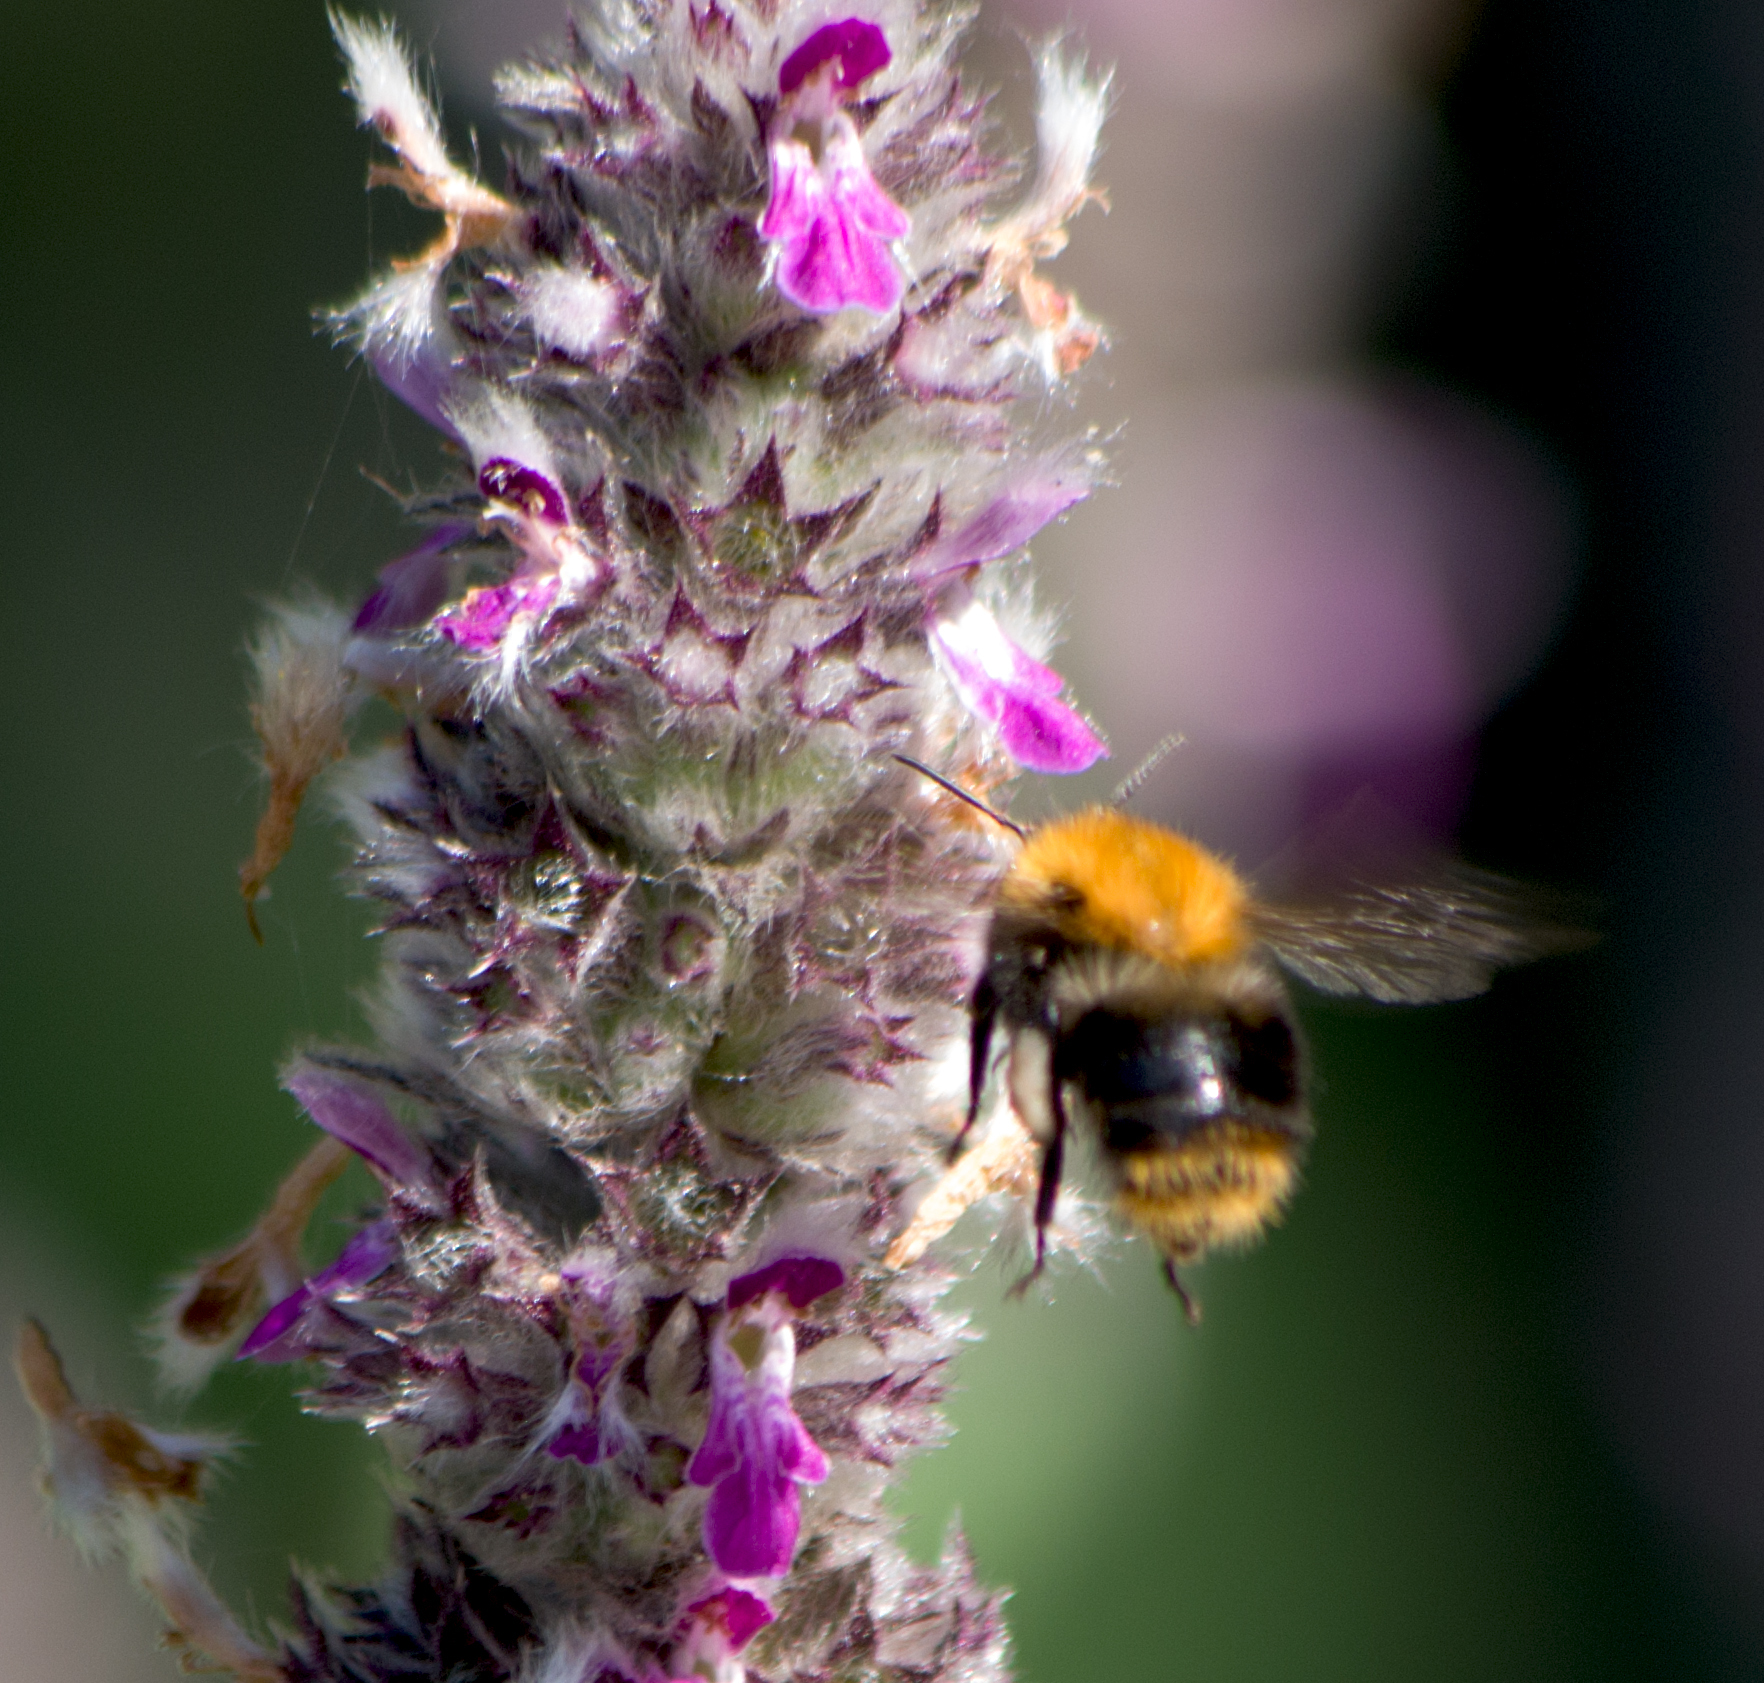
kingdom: Animalia
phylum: Arthropoda
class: Insecta
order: Hymenoptera
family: Apidae
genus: Bombus
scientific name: Bombus pascuorum
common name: Common carder bee
